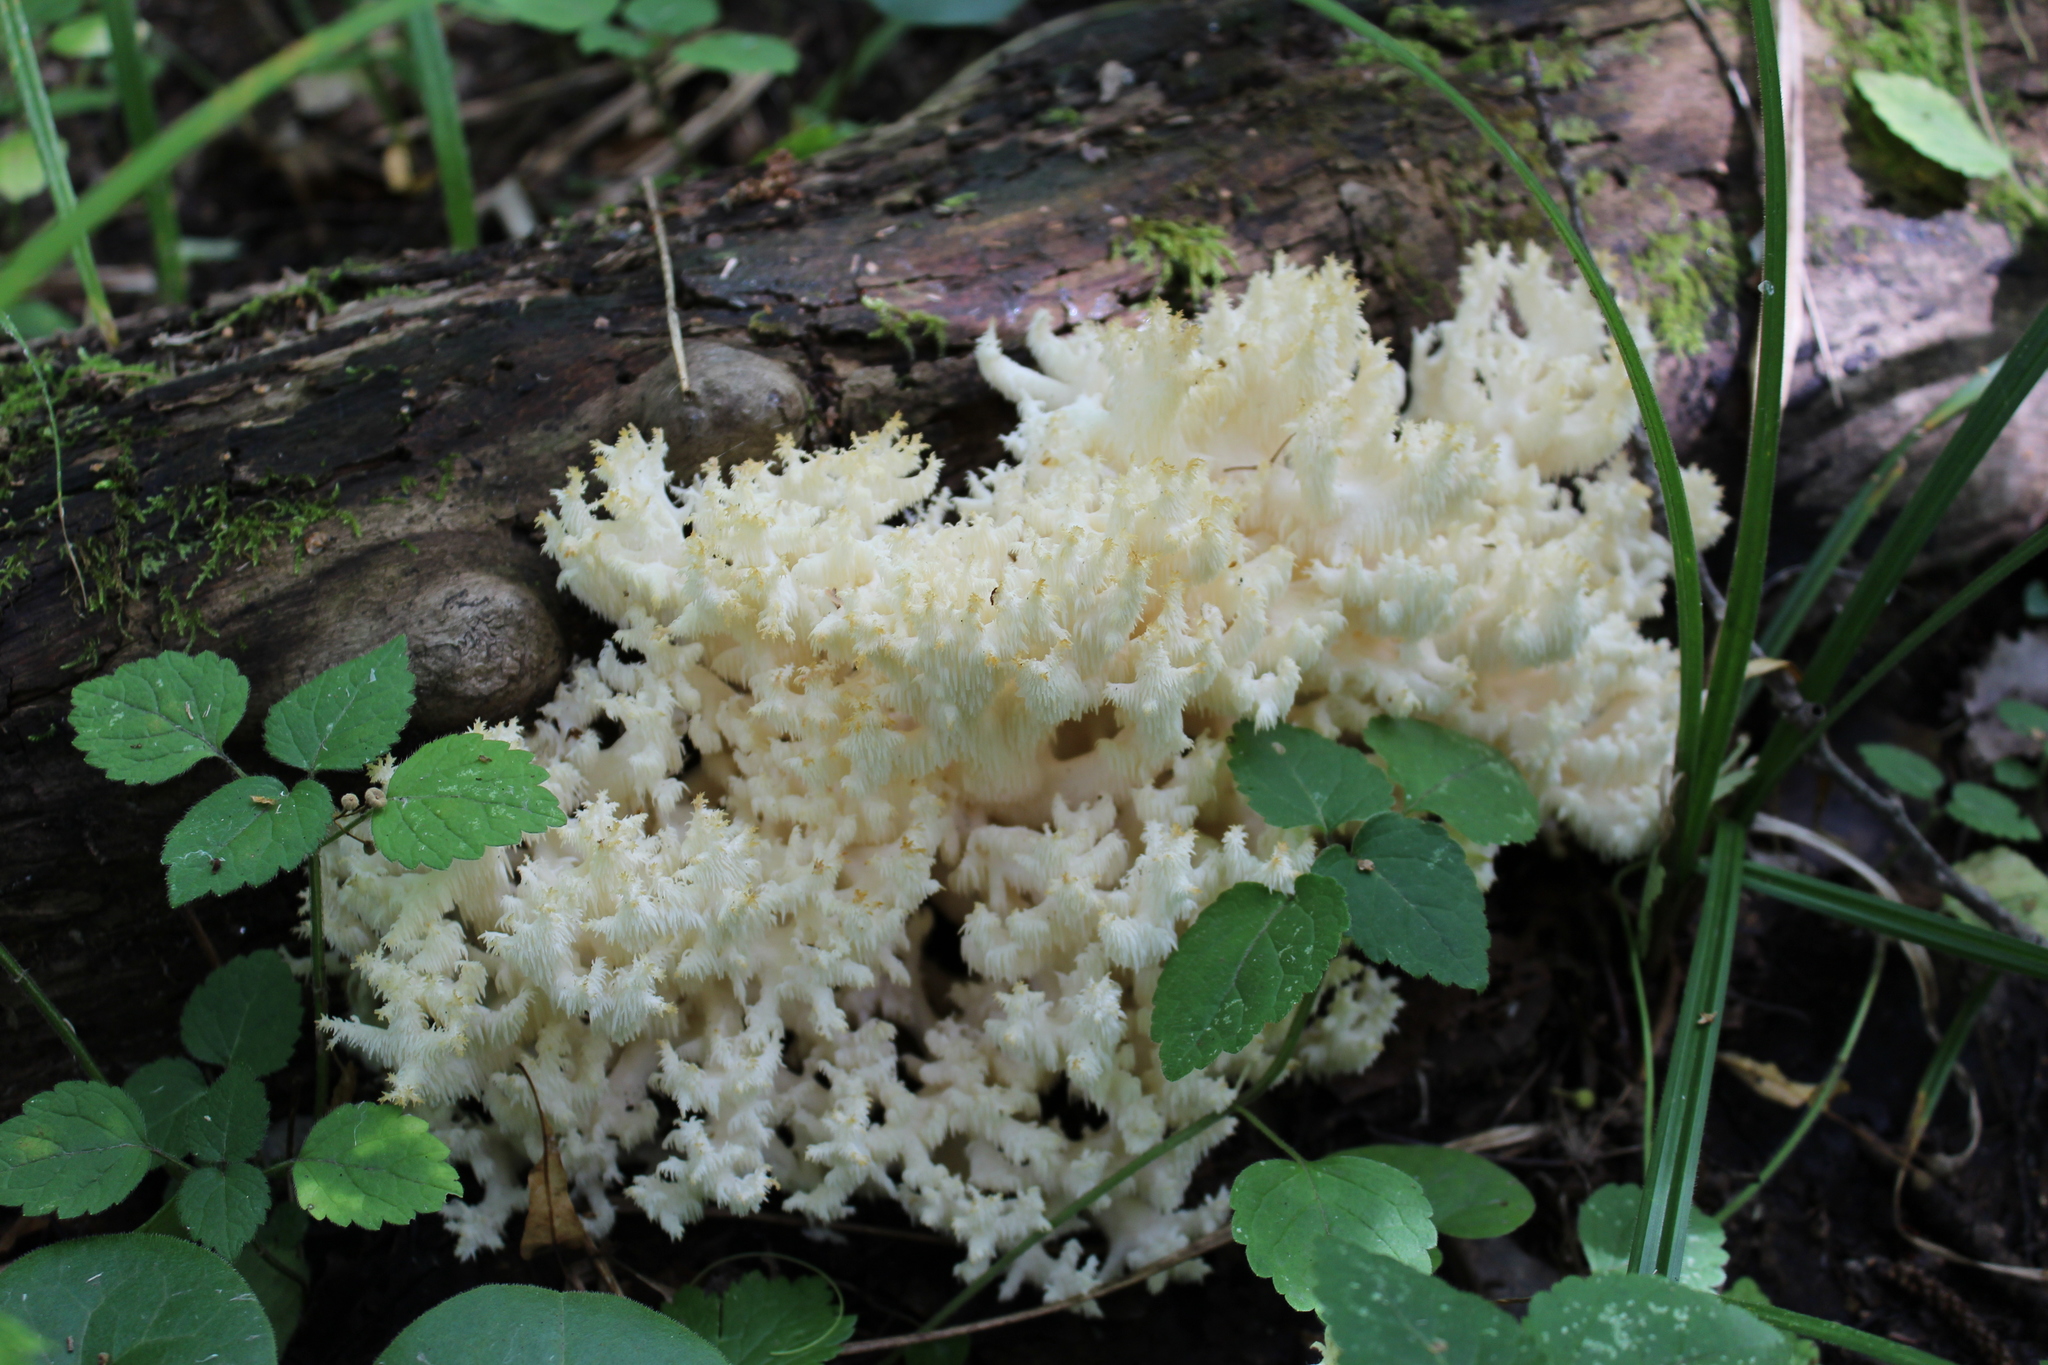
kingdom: Fungi
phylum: Basidiomycota
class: Agaricomycetes
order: Russulales
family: Hericiaceae
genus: Hericium
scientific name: Hericium coralloides
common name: Coral tooth
